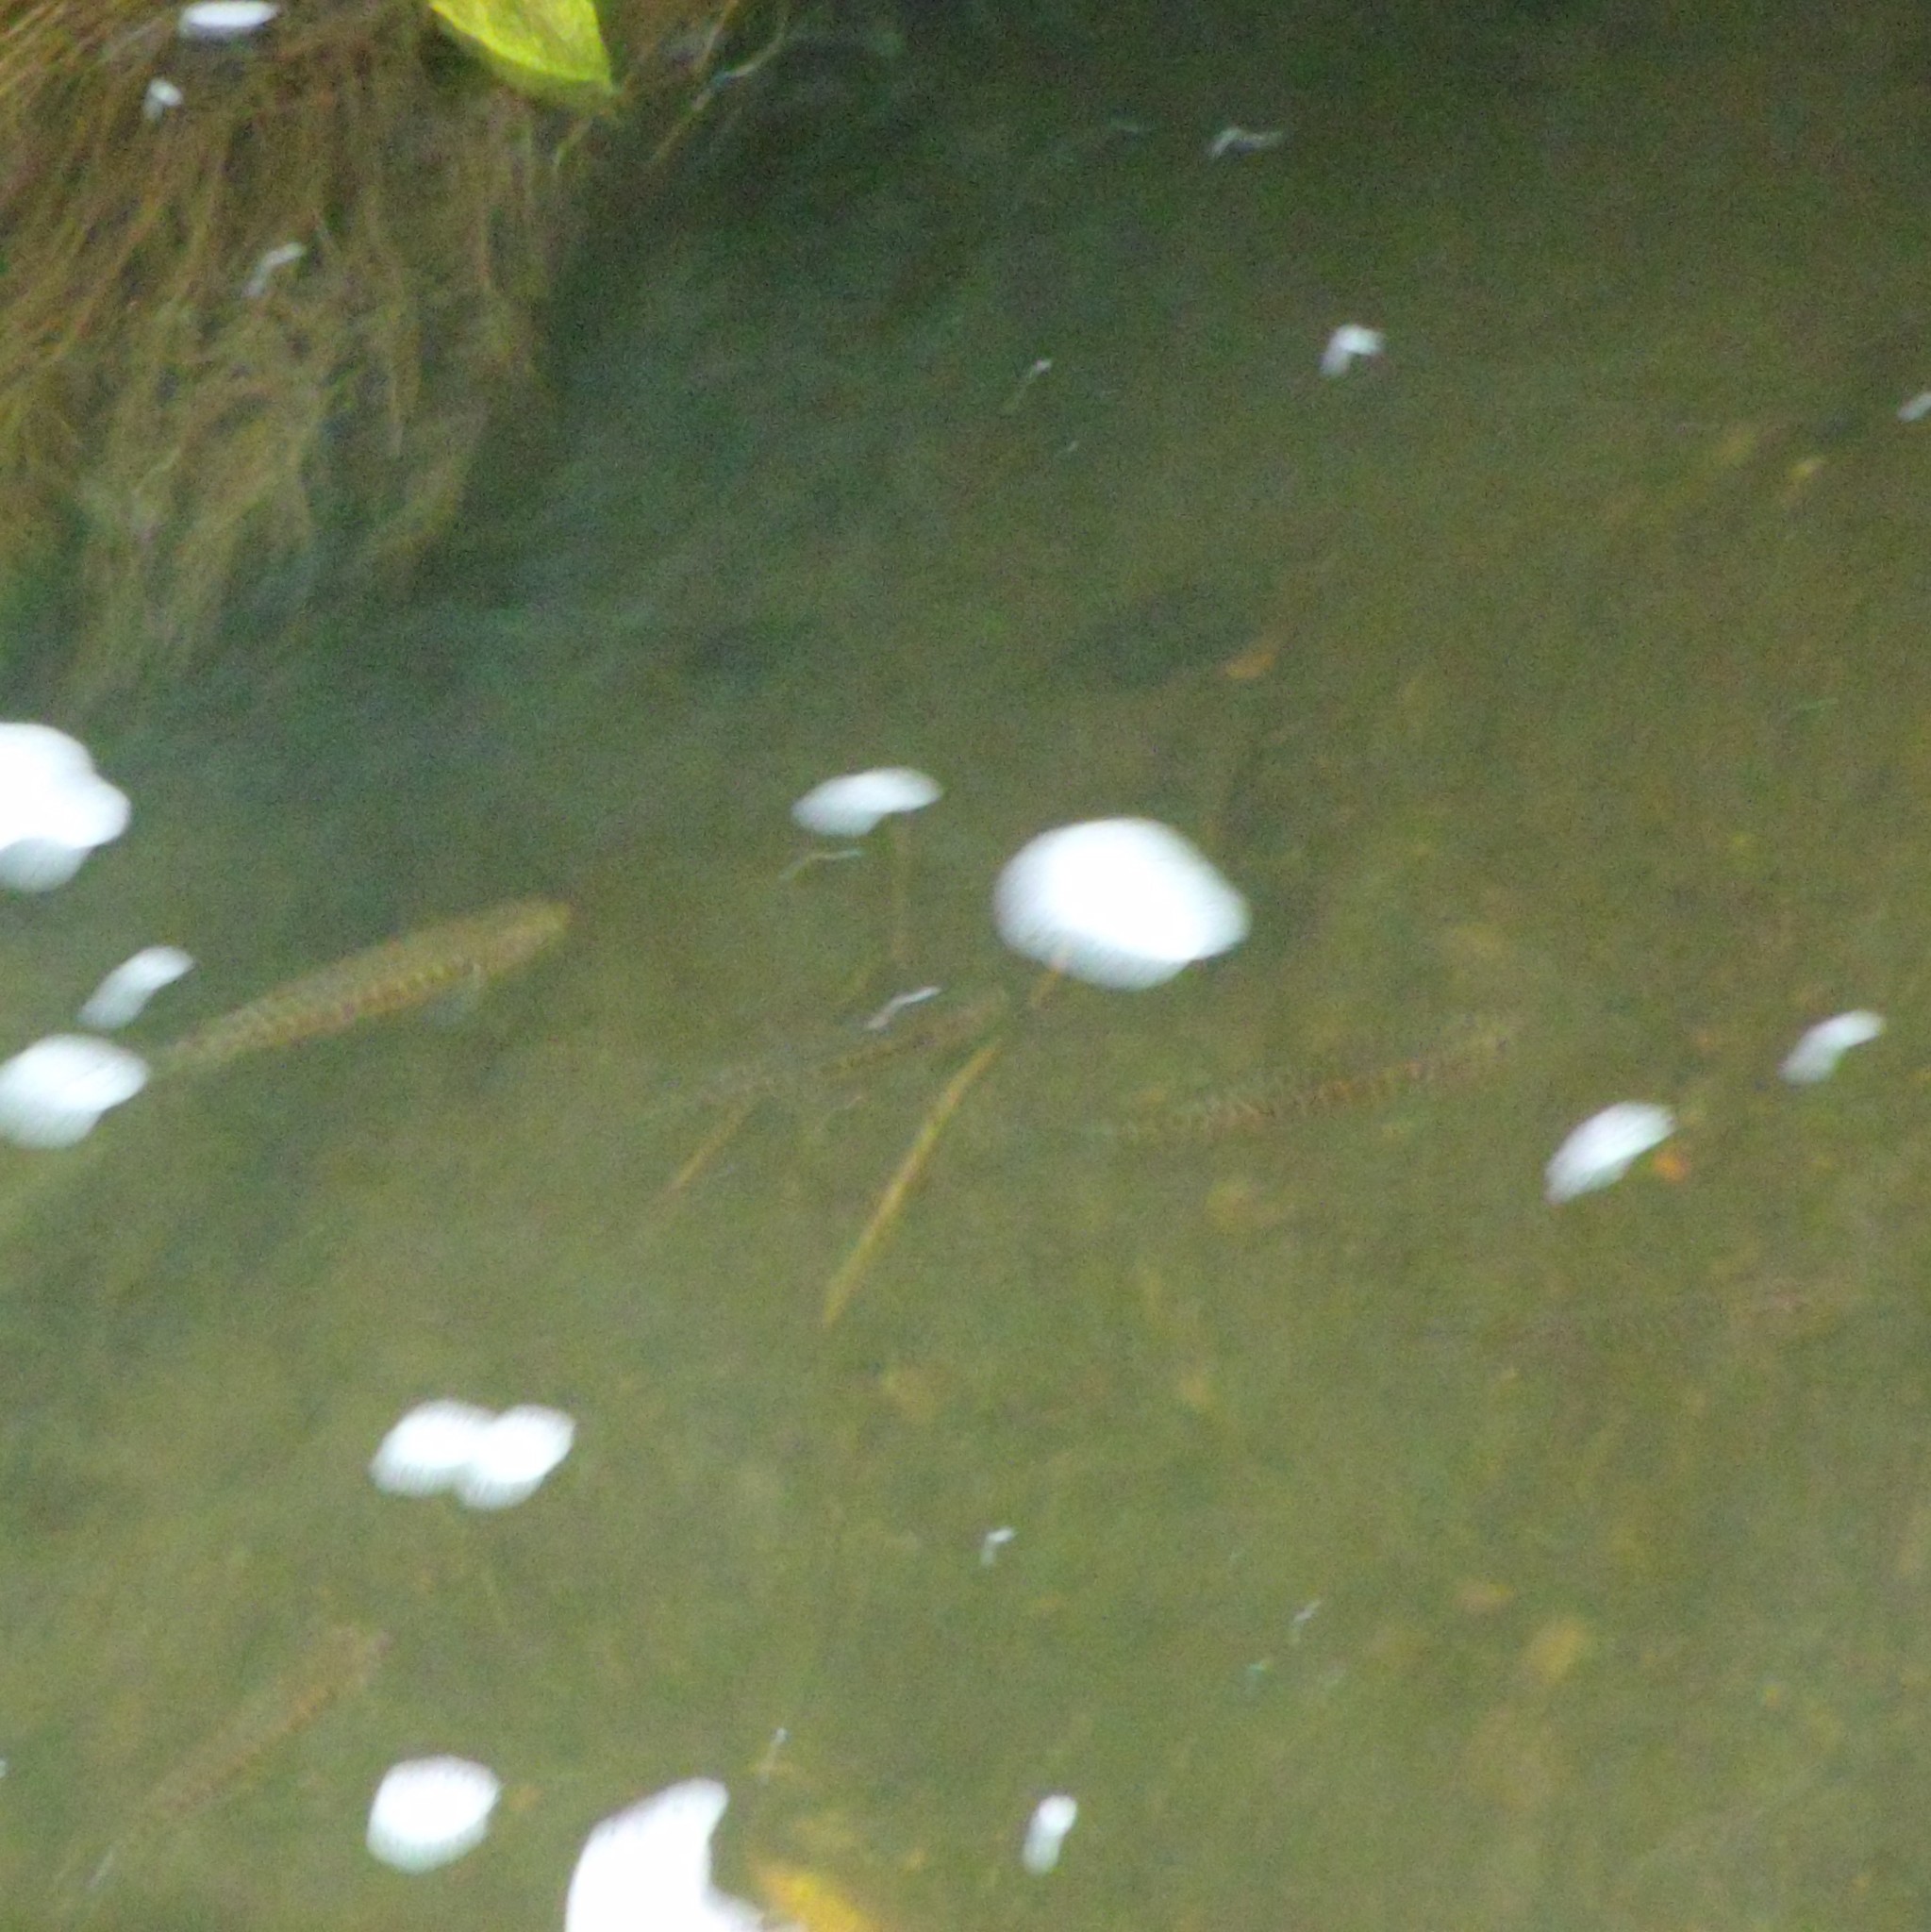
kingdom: Animalia
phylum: Chordata
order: Osmeriformes
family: Galaxiidae
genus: Galaxias
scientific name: Galaxias fasciatus
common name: Banded kokopu
